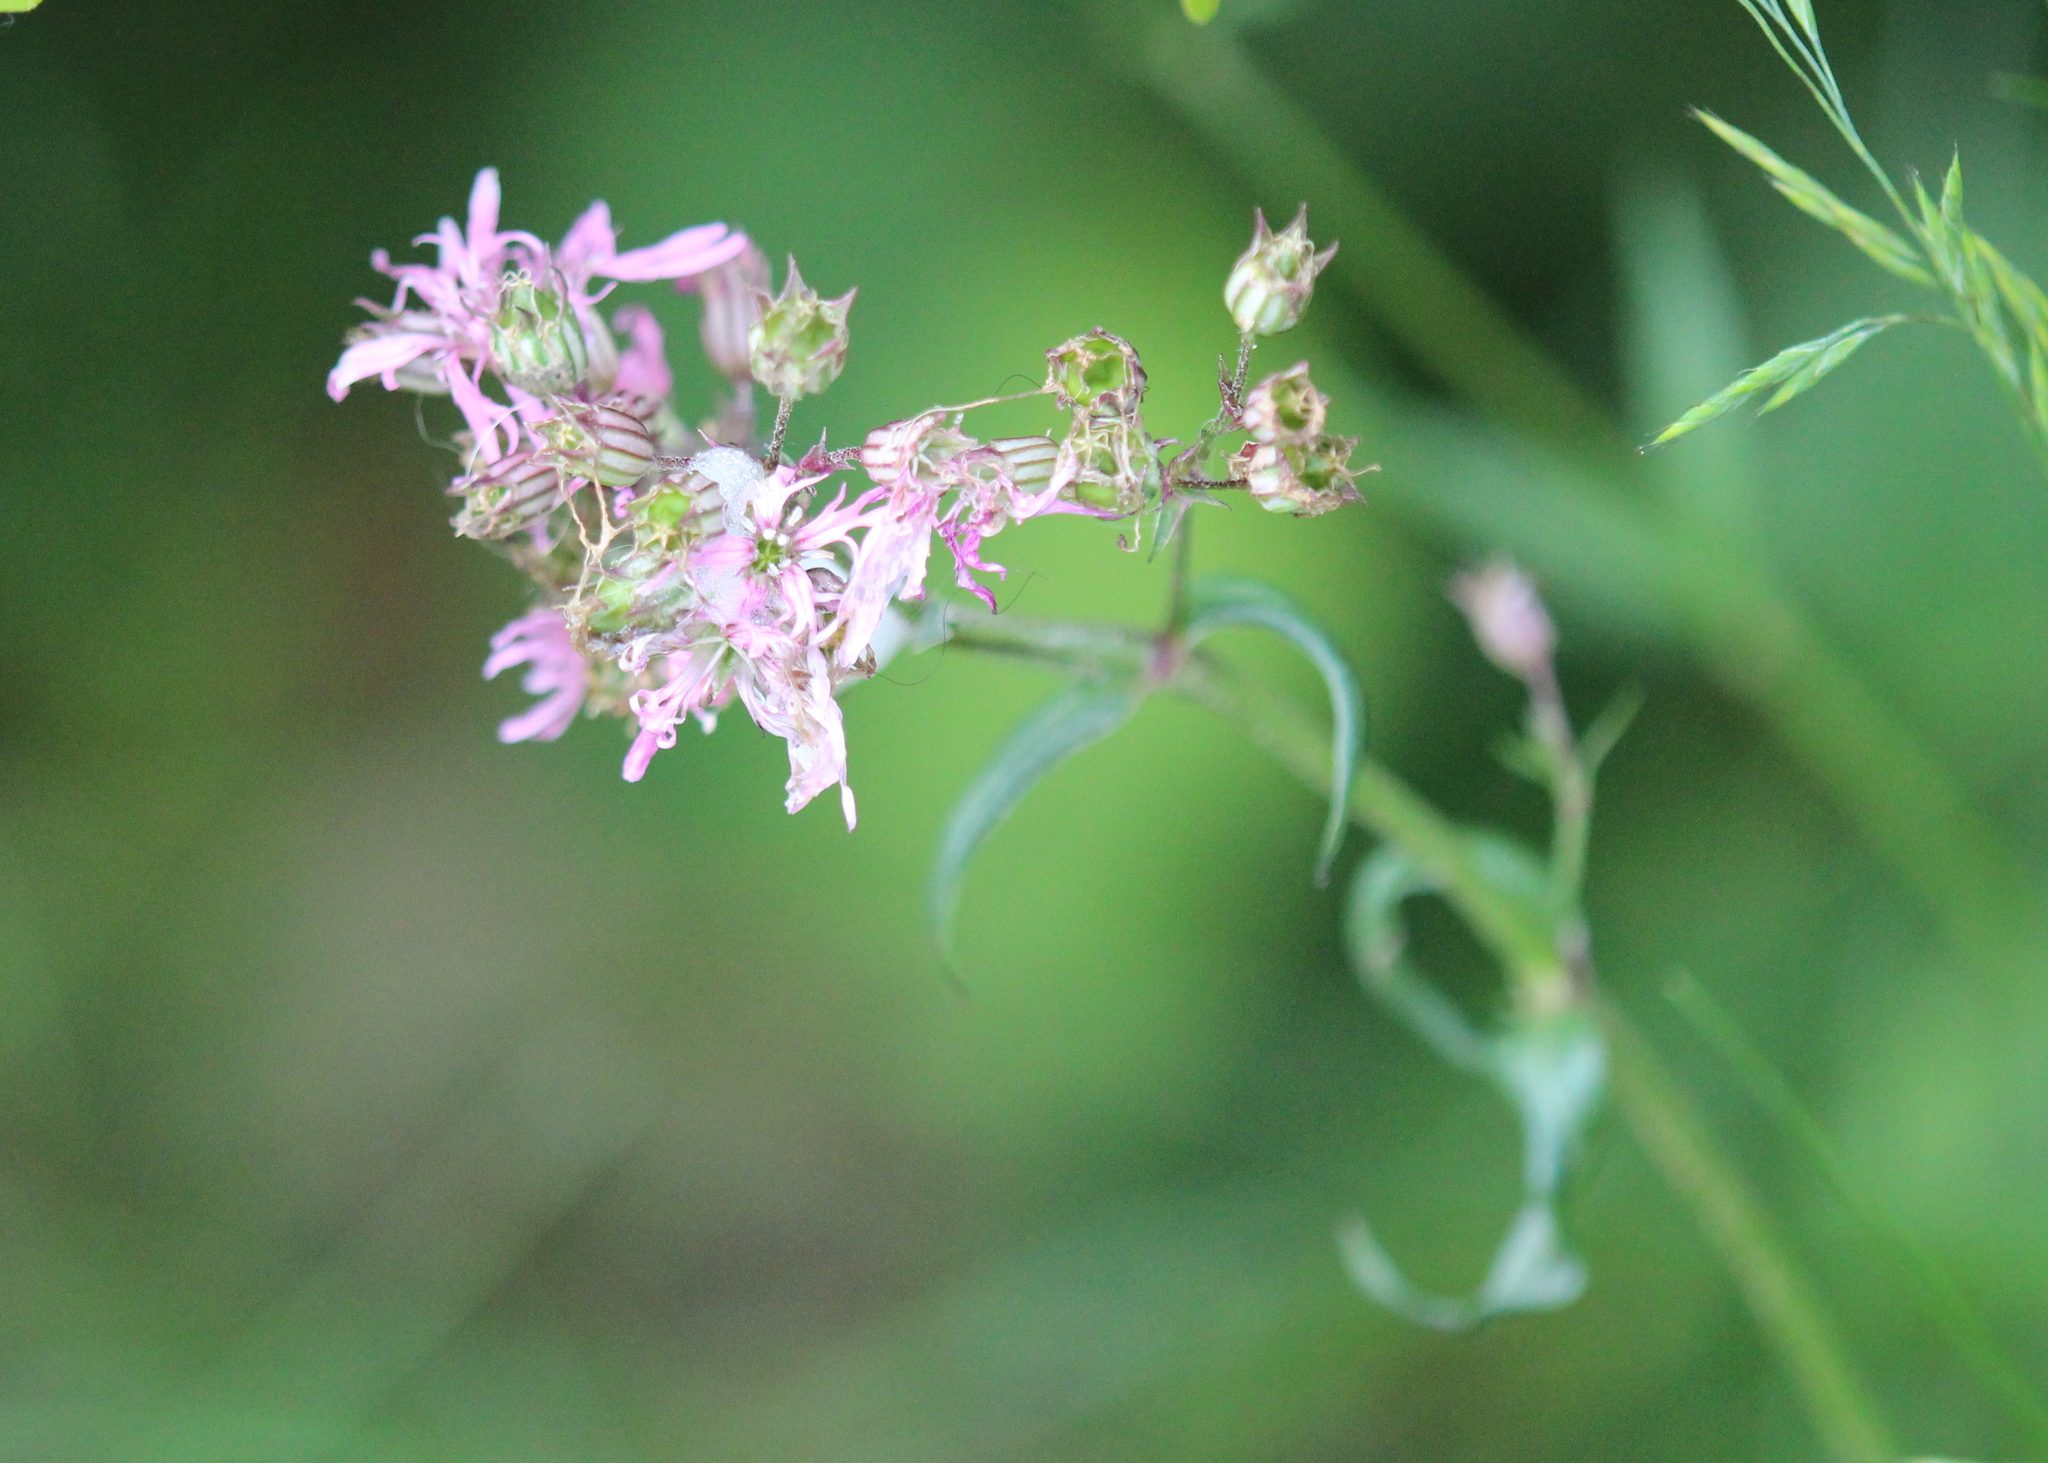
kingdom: Plantae
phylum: Tracheophyta
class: Magnoliopsida
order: Caryophyllales
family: Caryophyllaceae
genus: Silene
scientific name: Silene flos-cuculi
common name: Ragged-robin
